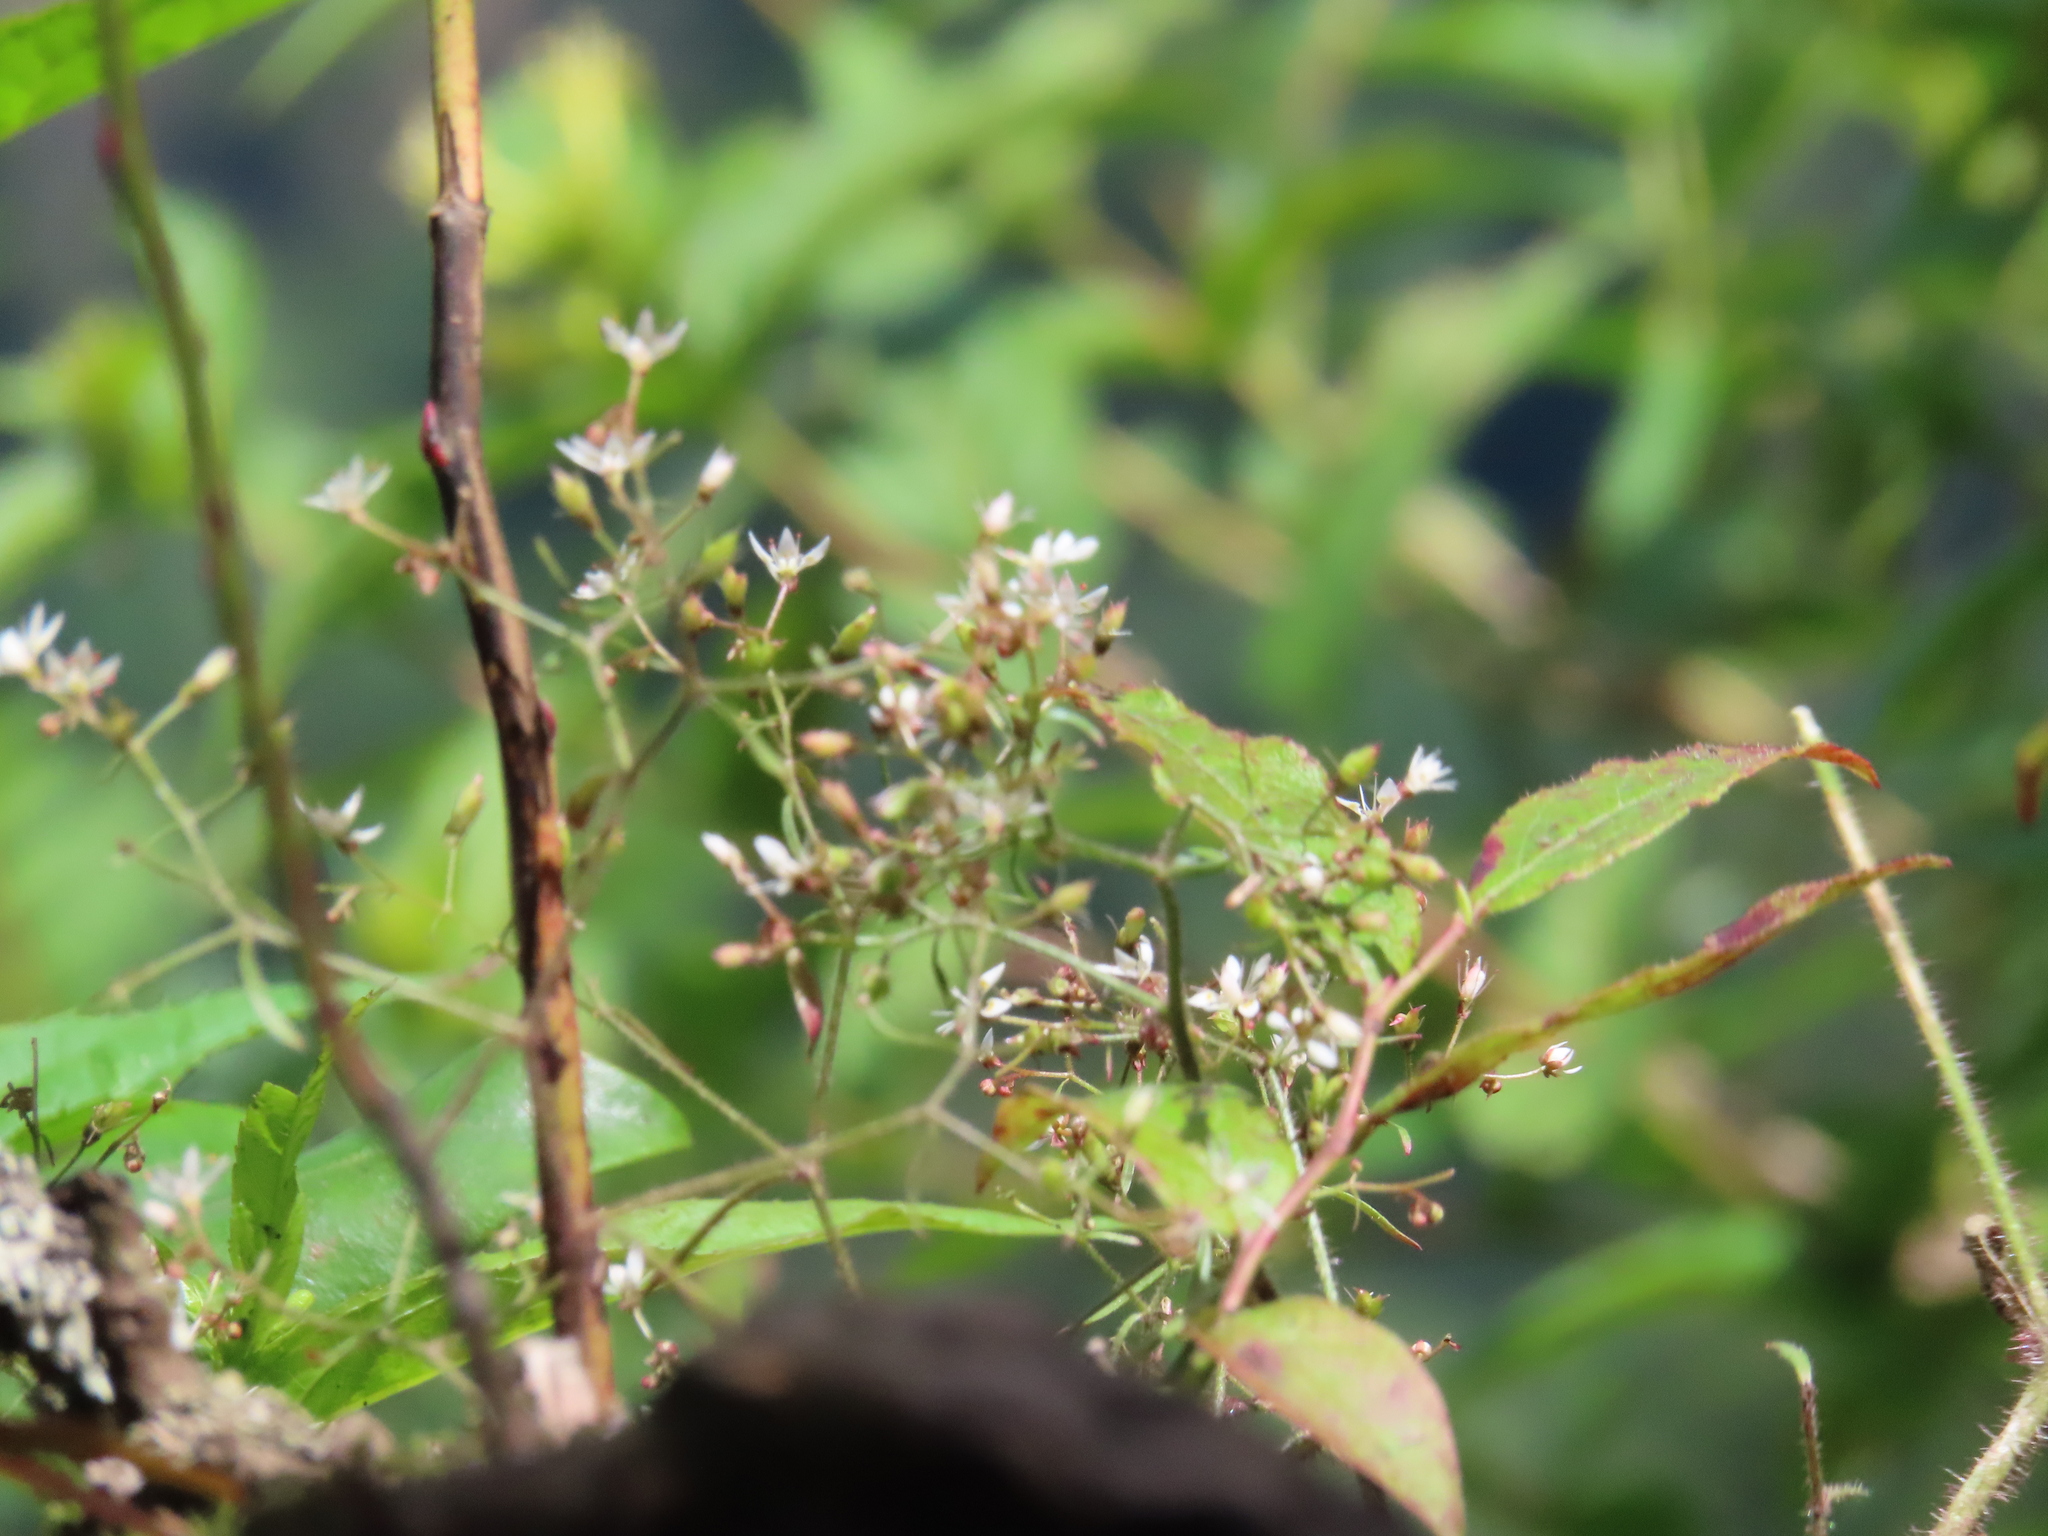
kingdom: Plantae
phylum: Tracheophyta
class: Magnoliopsida
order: Saxifragales
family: Saxifragaceae
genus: Micranthes
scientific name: Micranthes petiolaris
